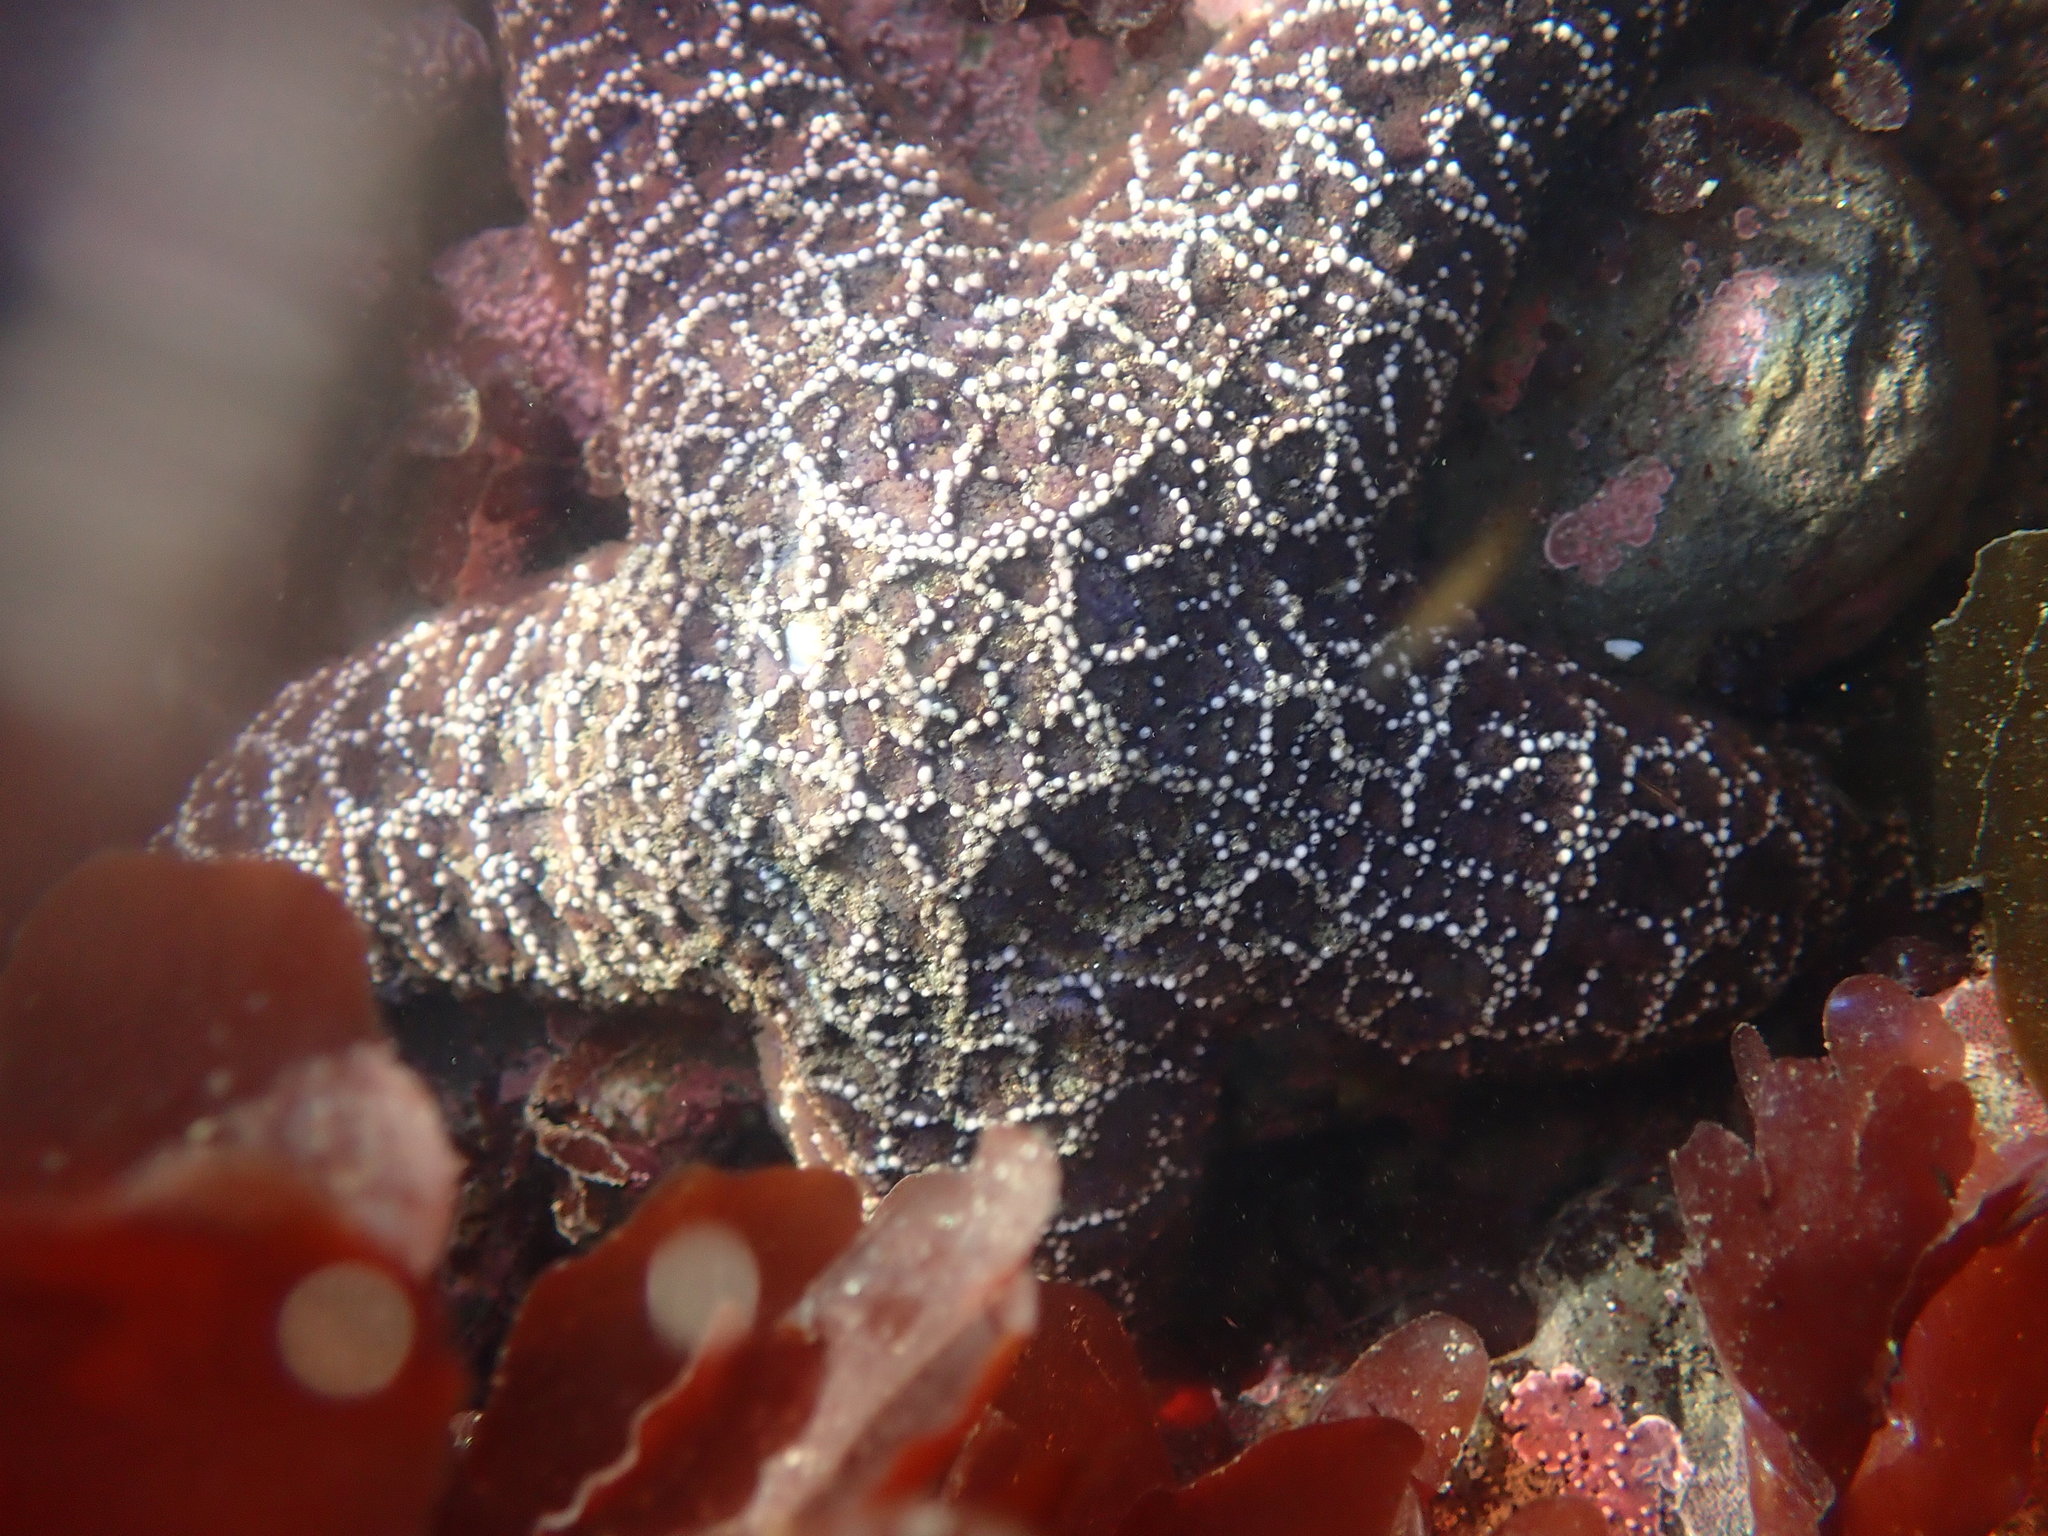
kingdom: Animalia
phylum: Echinodermata
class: Asteroidea
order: Forcipulatida
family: Asteriidae
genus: Pisaster
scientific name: Pisaster ochraceus
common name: Ochre stars
